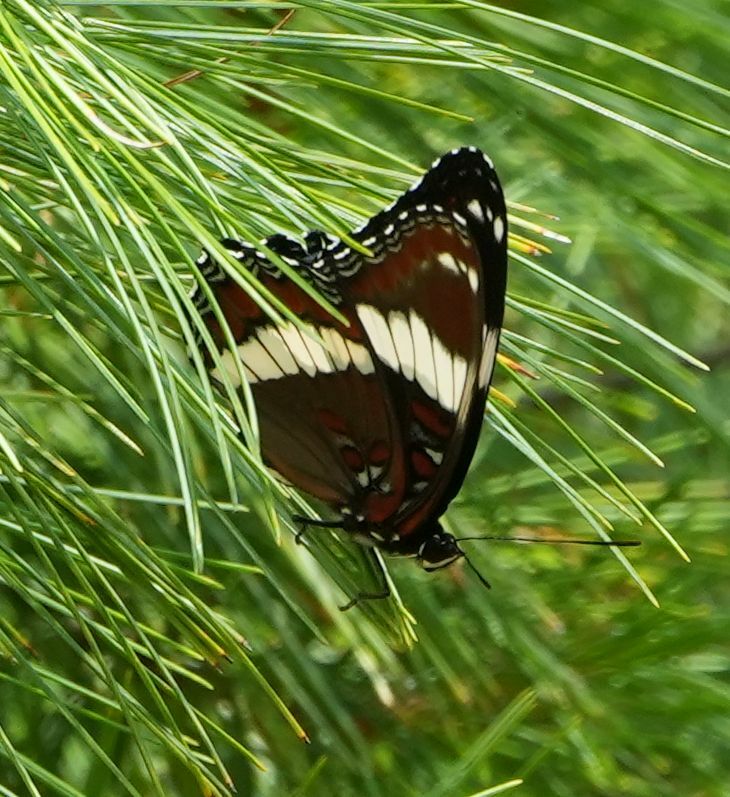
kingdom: Animalia
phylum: Arthropoda
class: Insecta
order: Lepidoptera
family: Nymphalidae
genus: Limenitis
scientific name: Limenitis arthemis
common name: Red-spotted admiral
